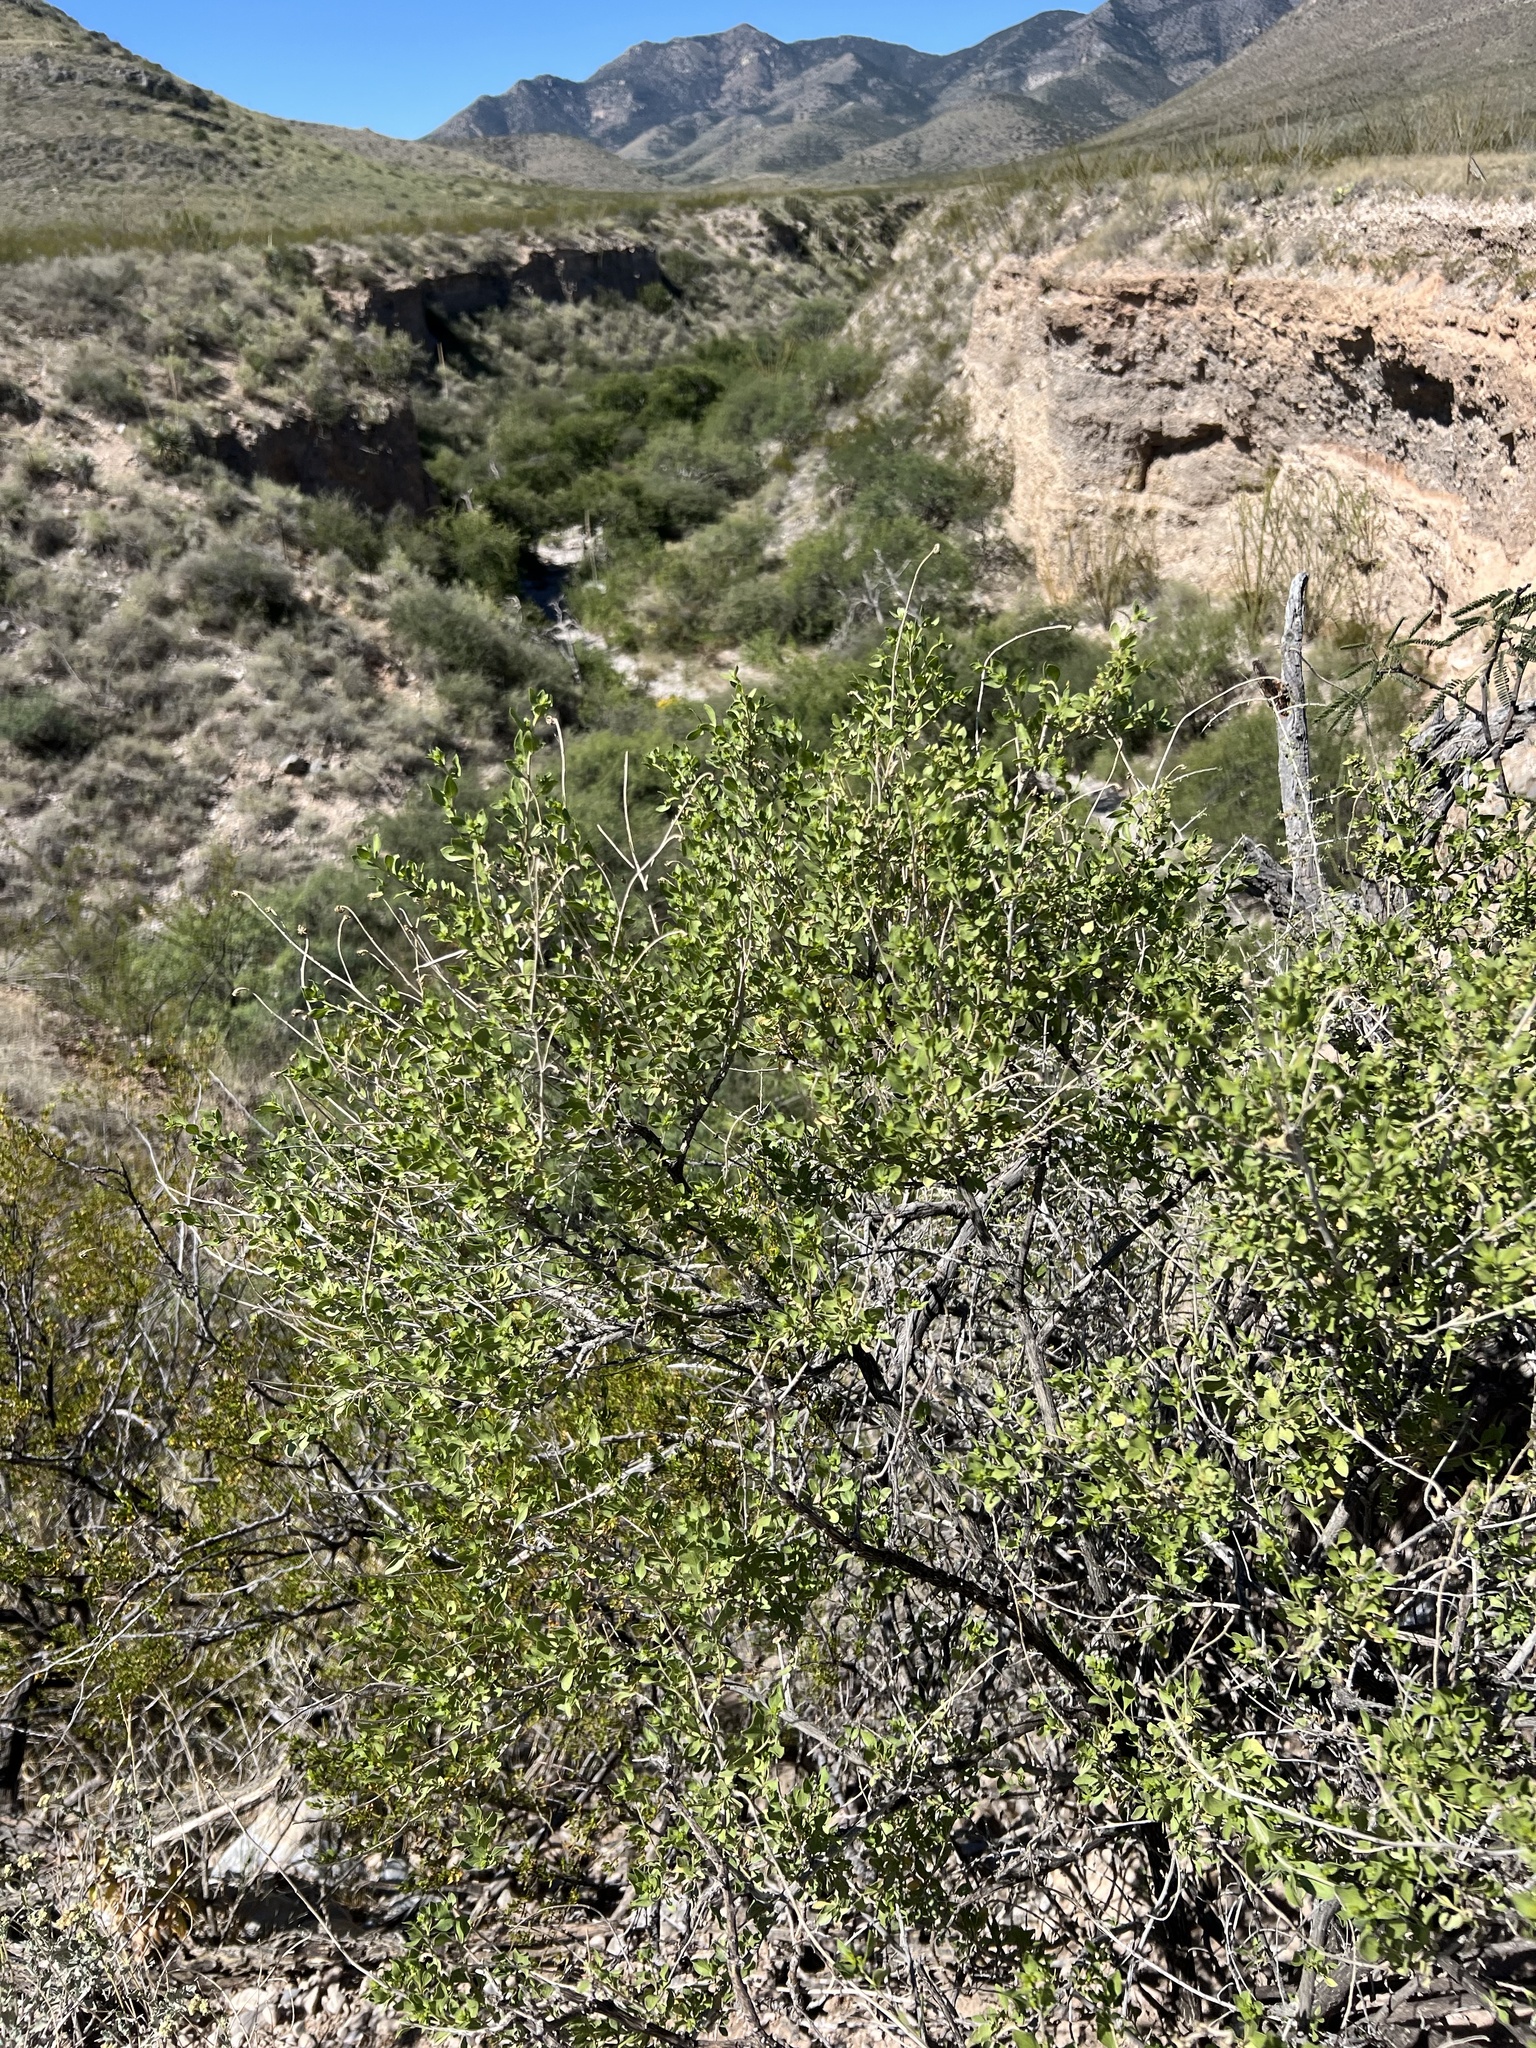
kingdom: Plantae
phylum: Tracheophyta
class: Magnoliopsida
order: Asterales
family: Asteraceae
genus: Flourensia
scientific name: Flourensia cernua
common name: Varnishbush
